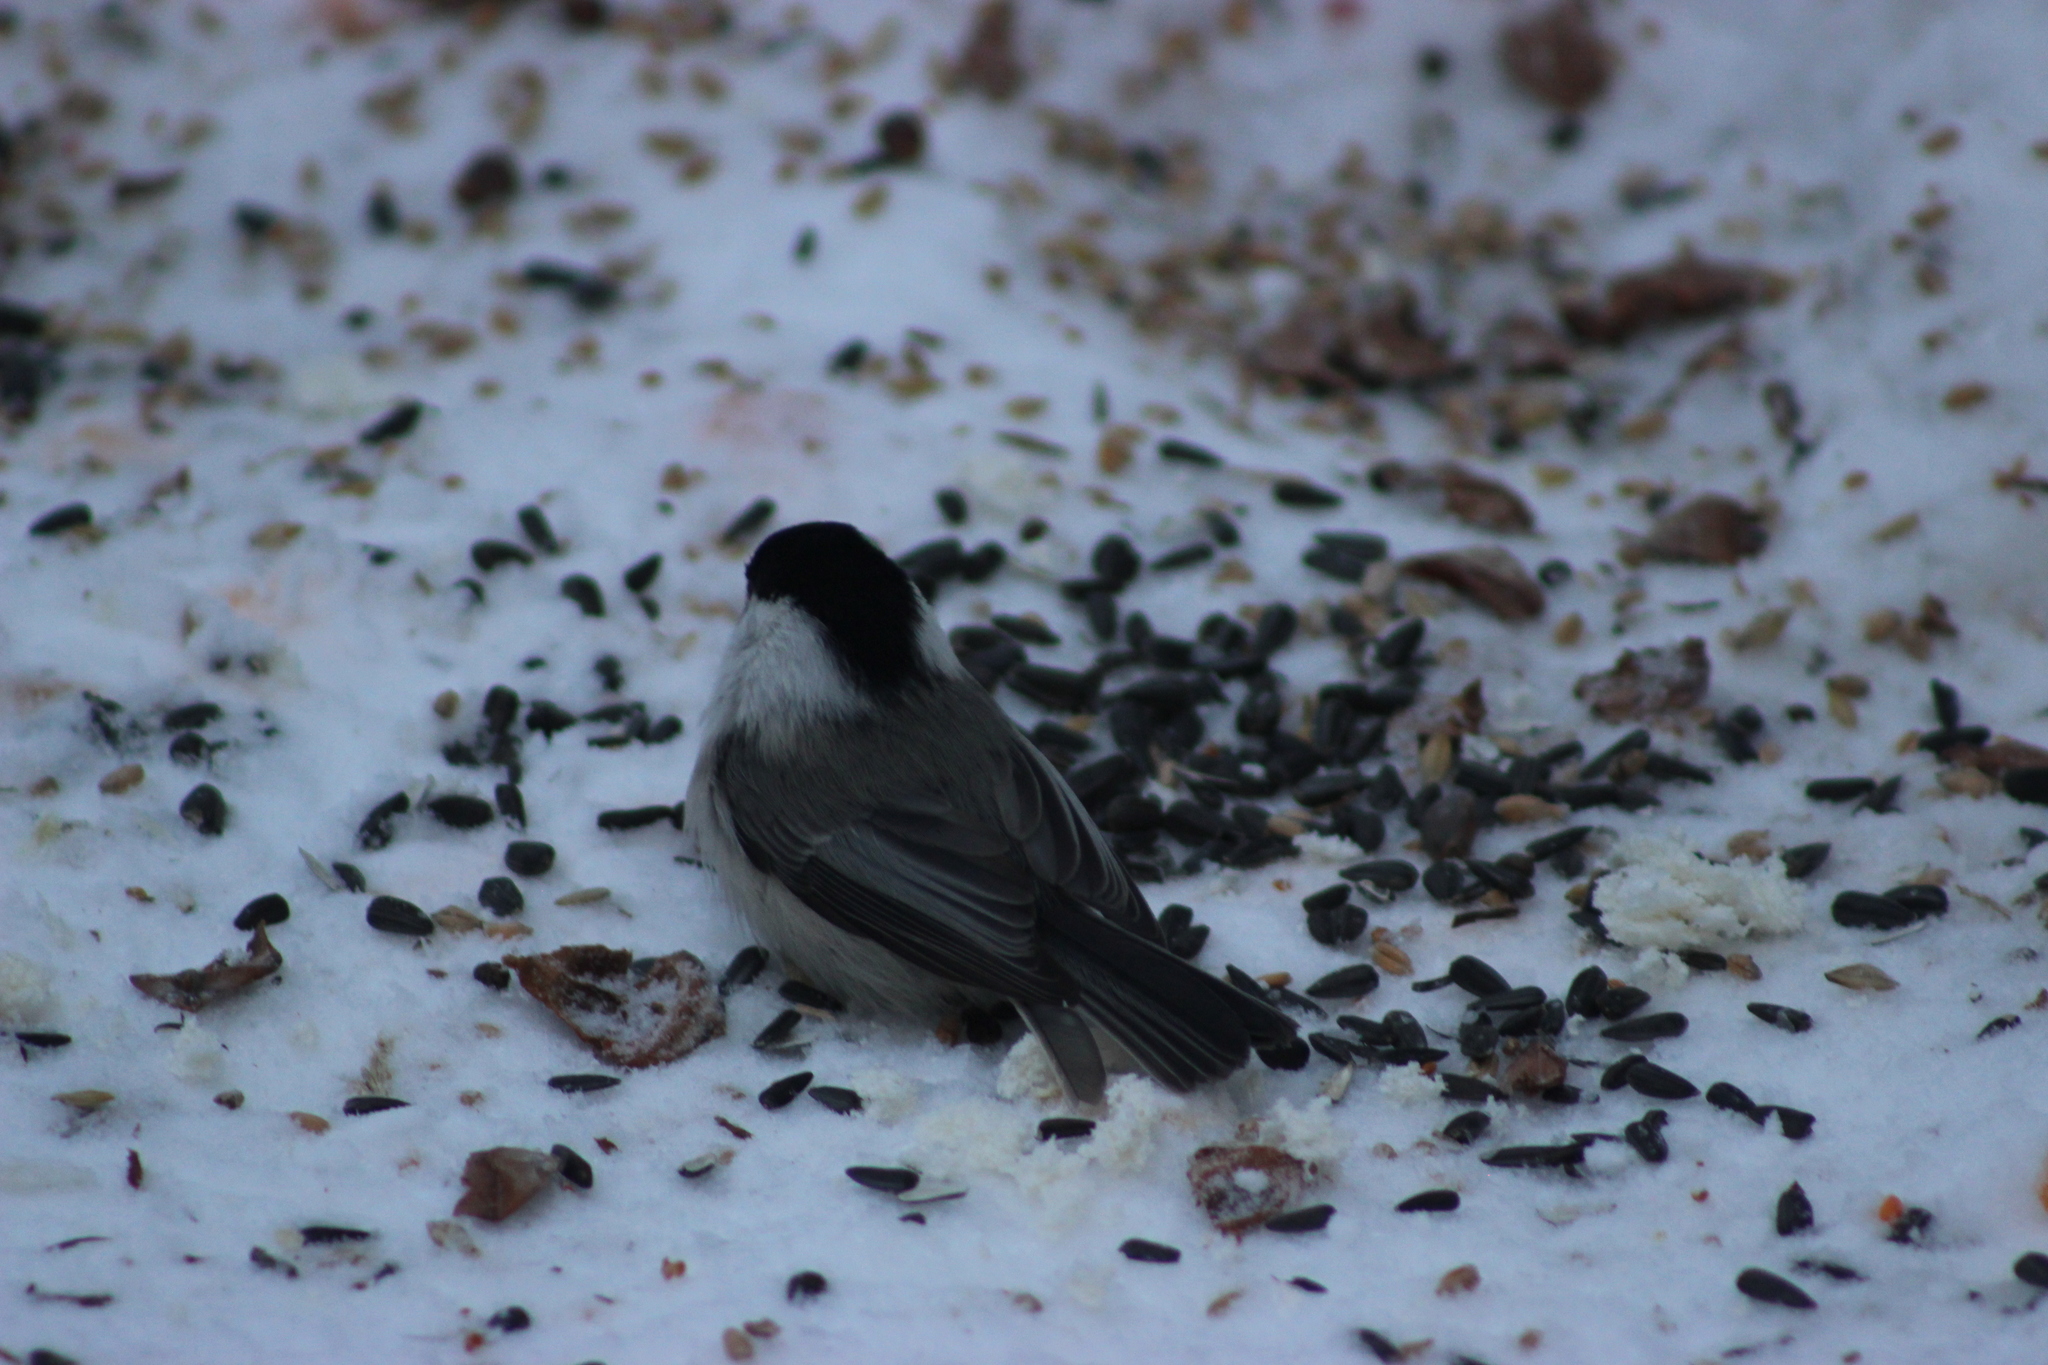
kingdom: Animalia
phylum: Chordata
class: Aves
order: Passeriformes
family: Paridae
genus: Poecile
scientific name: Poecile montanus
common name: Willow tit
